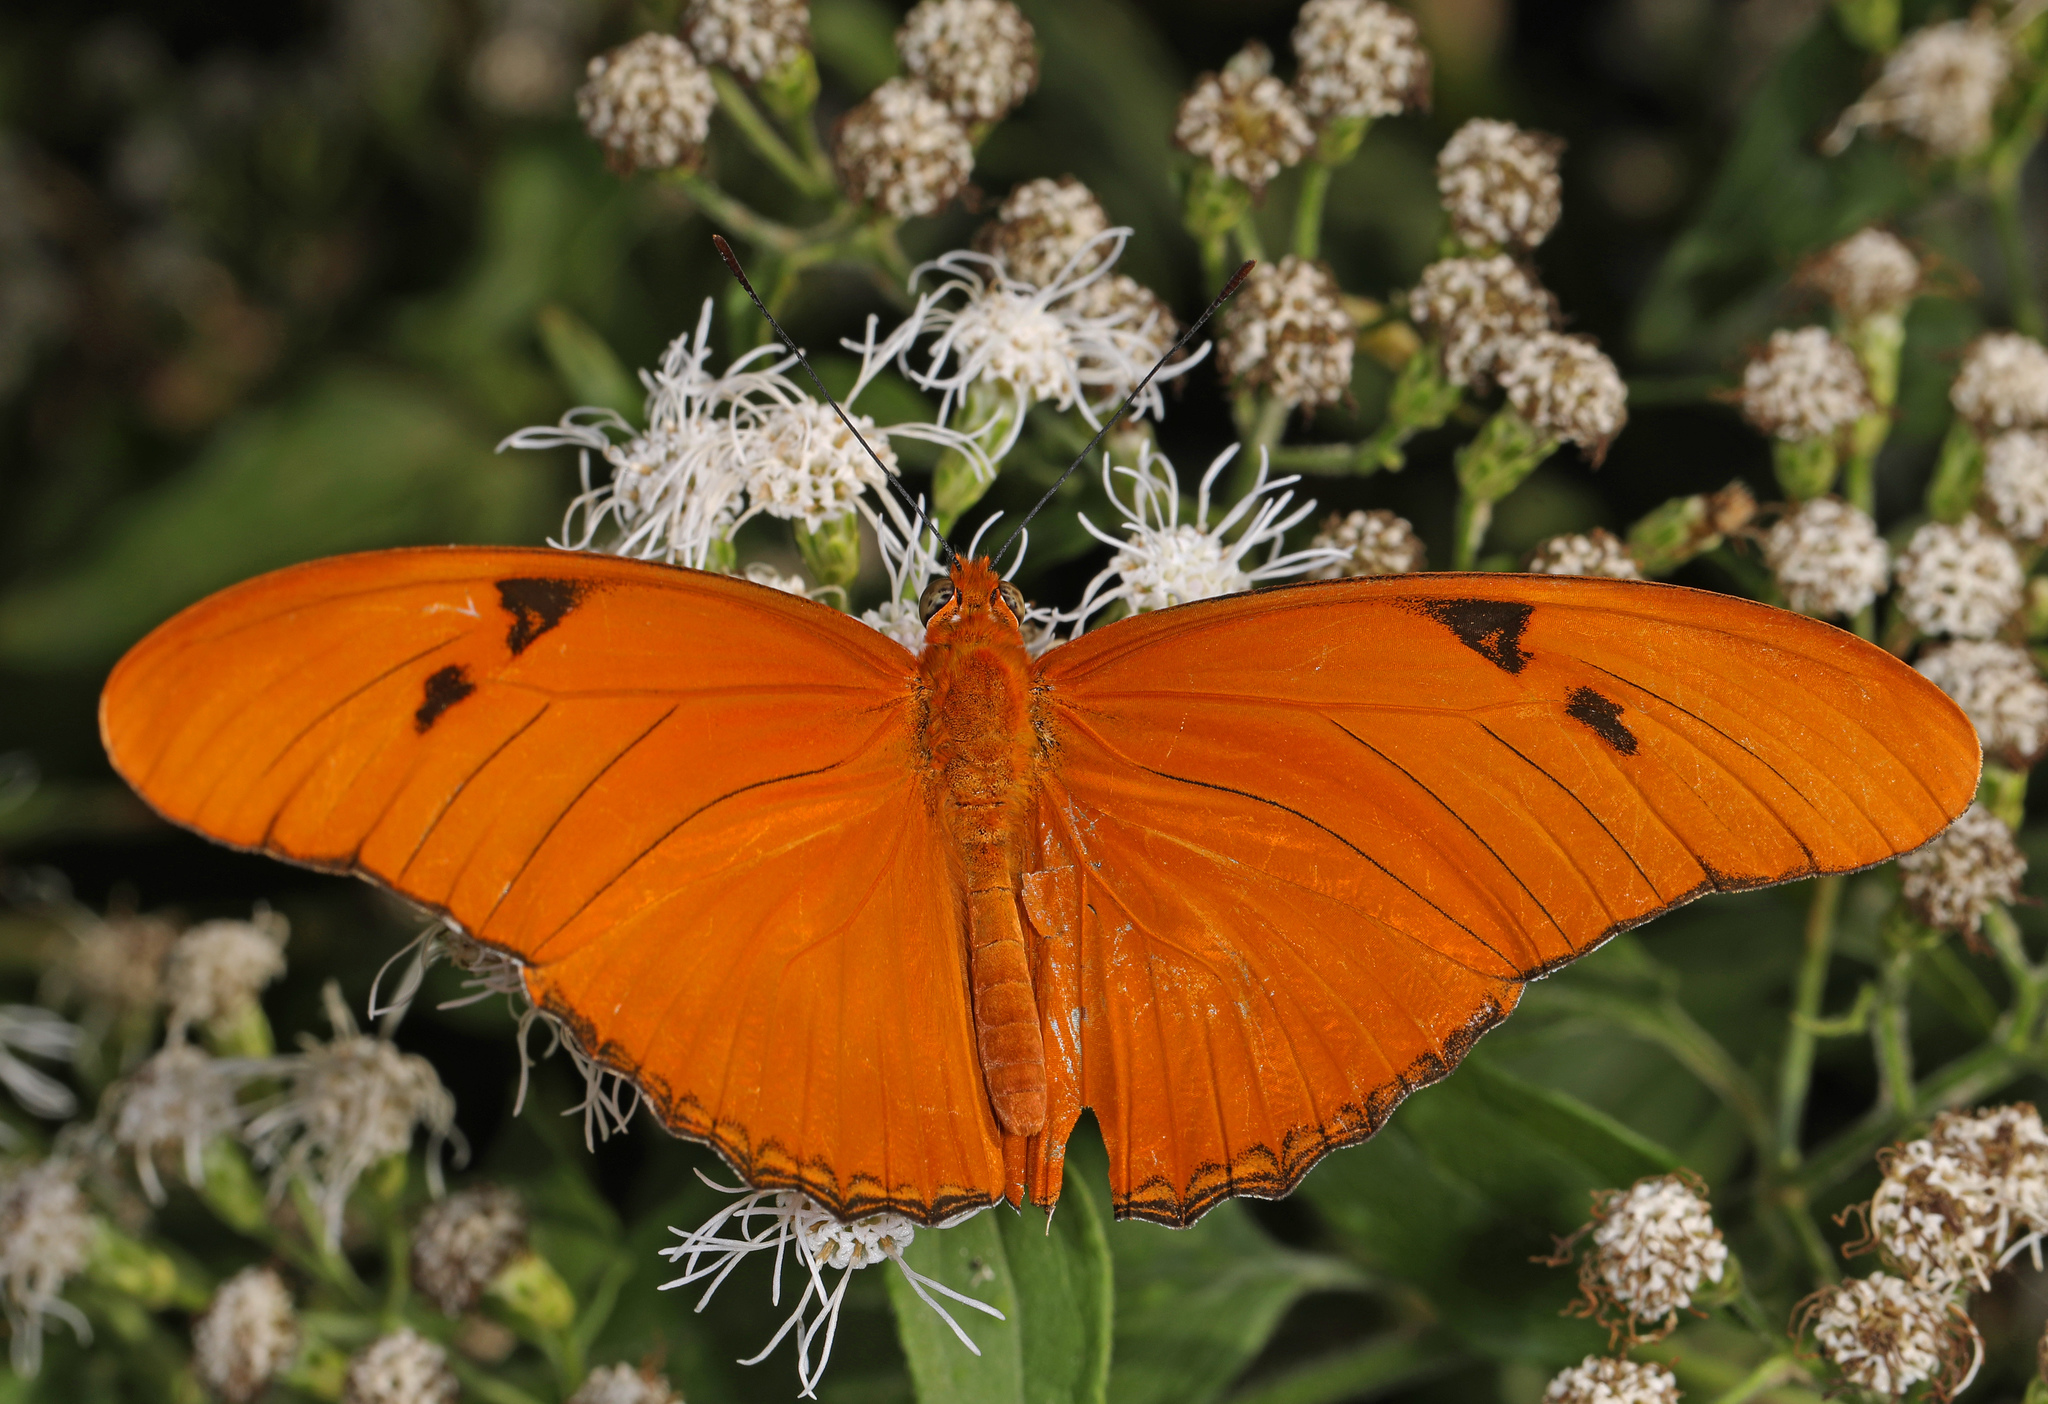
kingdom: Animalia
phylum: Arthropoda
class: Insecta
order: Lepidoptera
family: Nymphalidae
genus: Dryas
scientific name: Dryas iulia
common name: Flambeau
